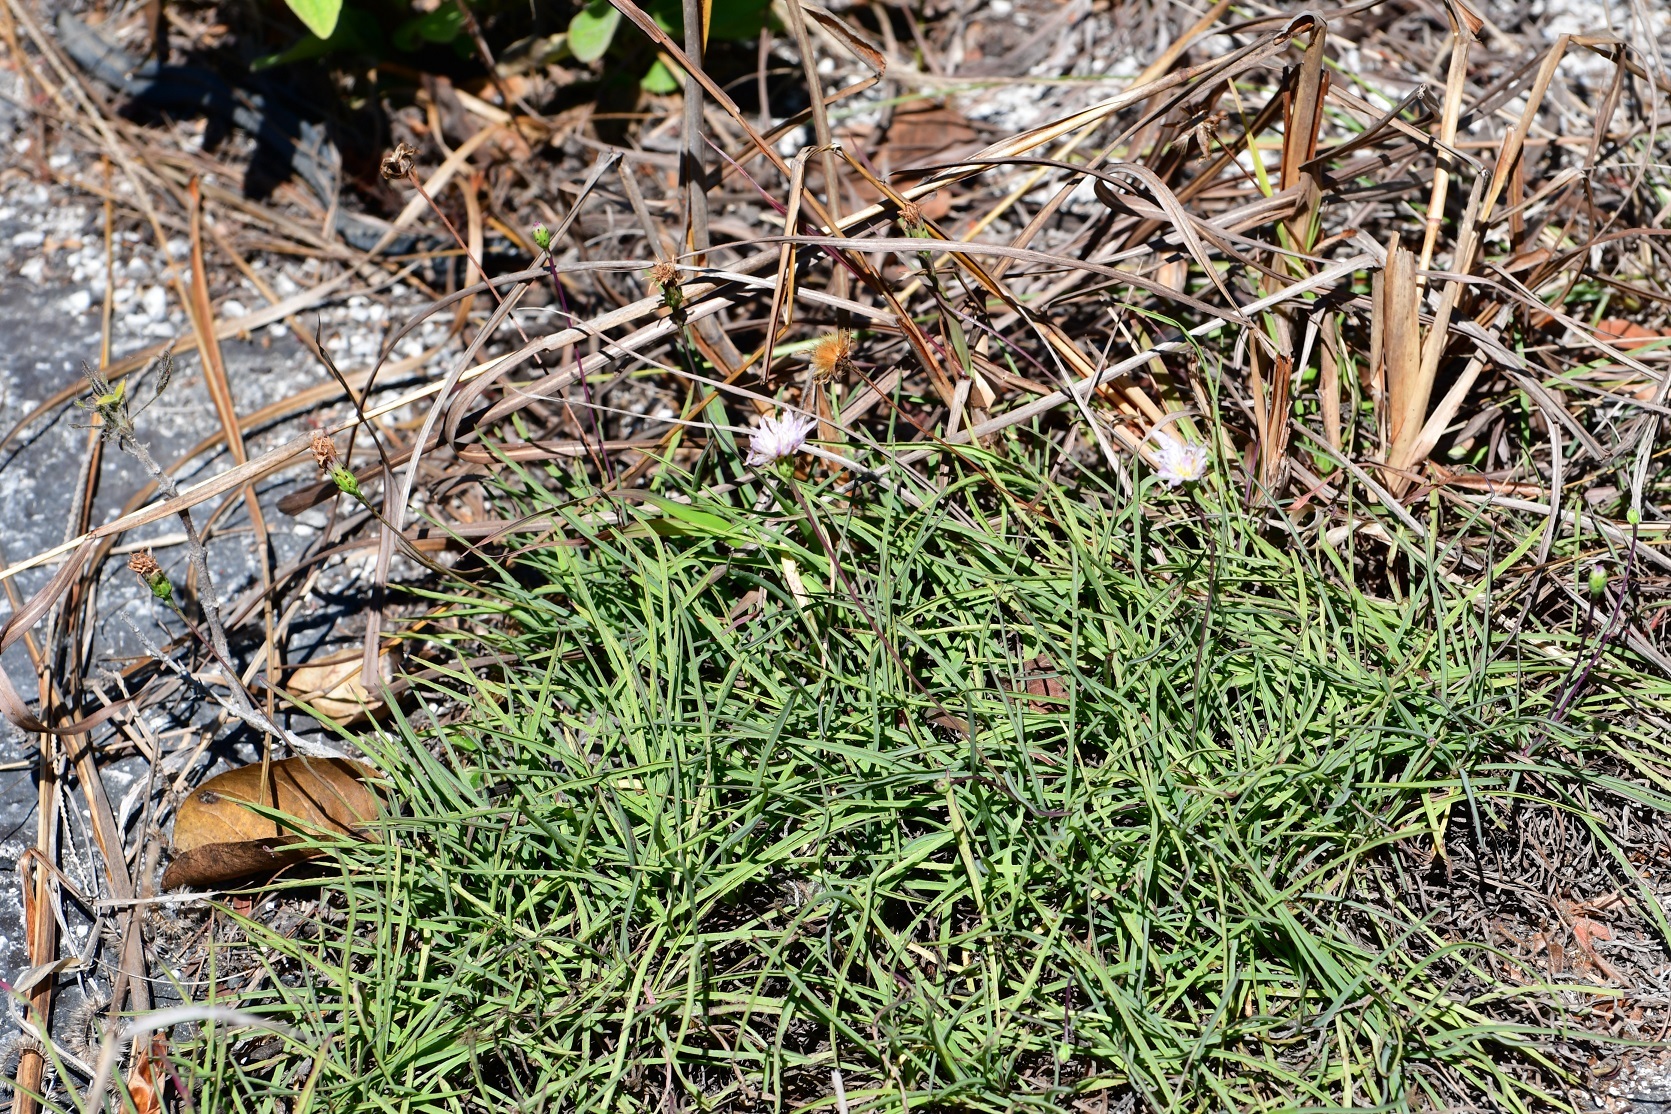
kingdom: Plantae
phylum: Tracheophyta
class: Magnoliopsida
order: Asterales
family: Asteraceae
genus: Pinaropappus
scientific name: Pinaropappus spathulatus
